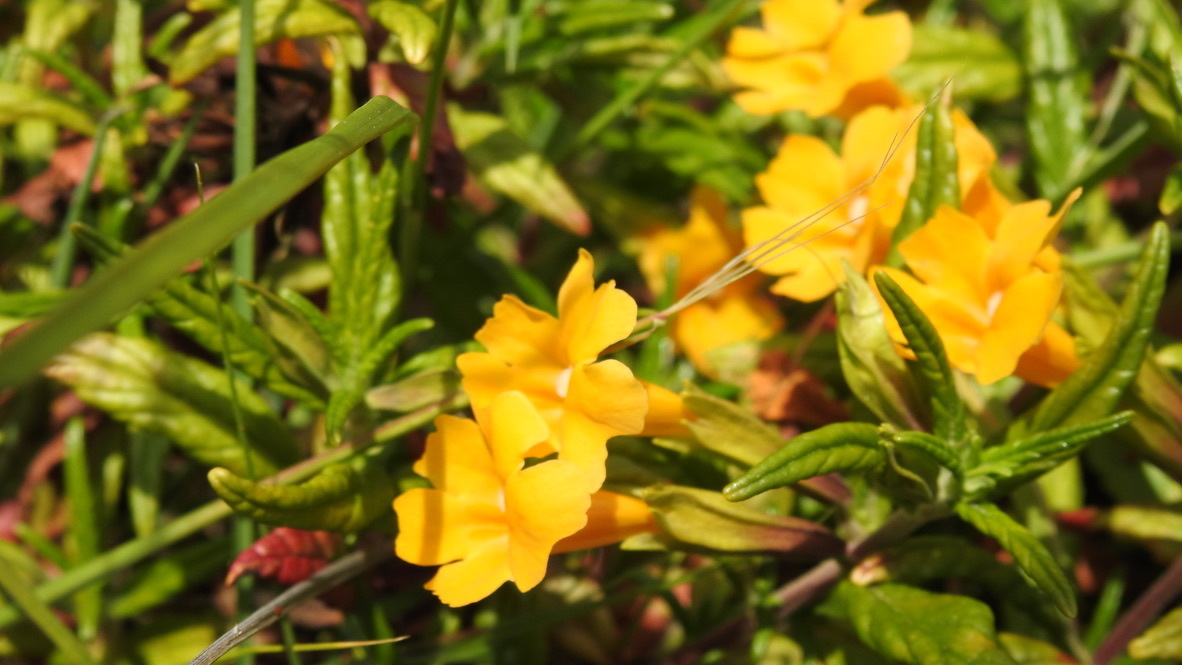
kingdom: Plantae
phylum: Tracheophyta
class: Magnoliopsida
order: Lamiales
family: Phrymaceae
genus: Diplacus
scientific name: Diplacus aurantiacus
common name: Bush monkey-flower
